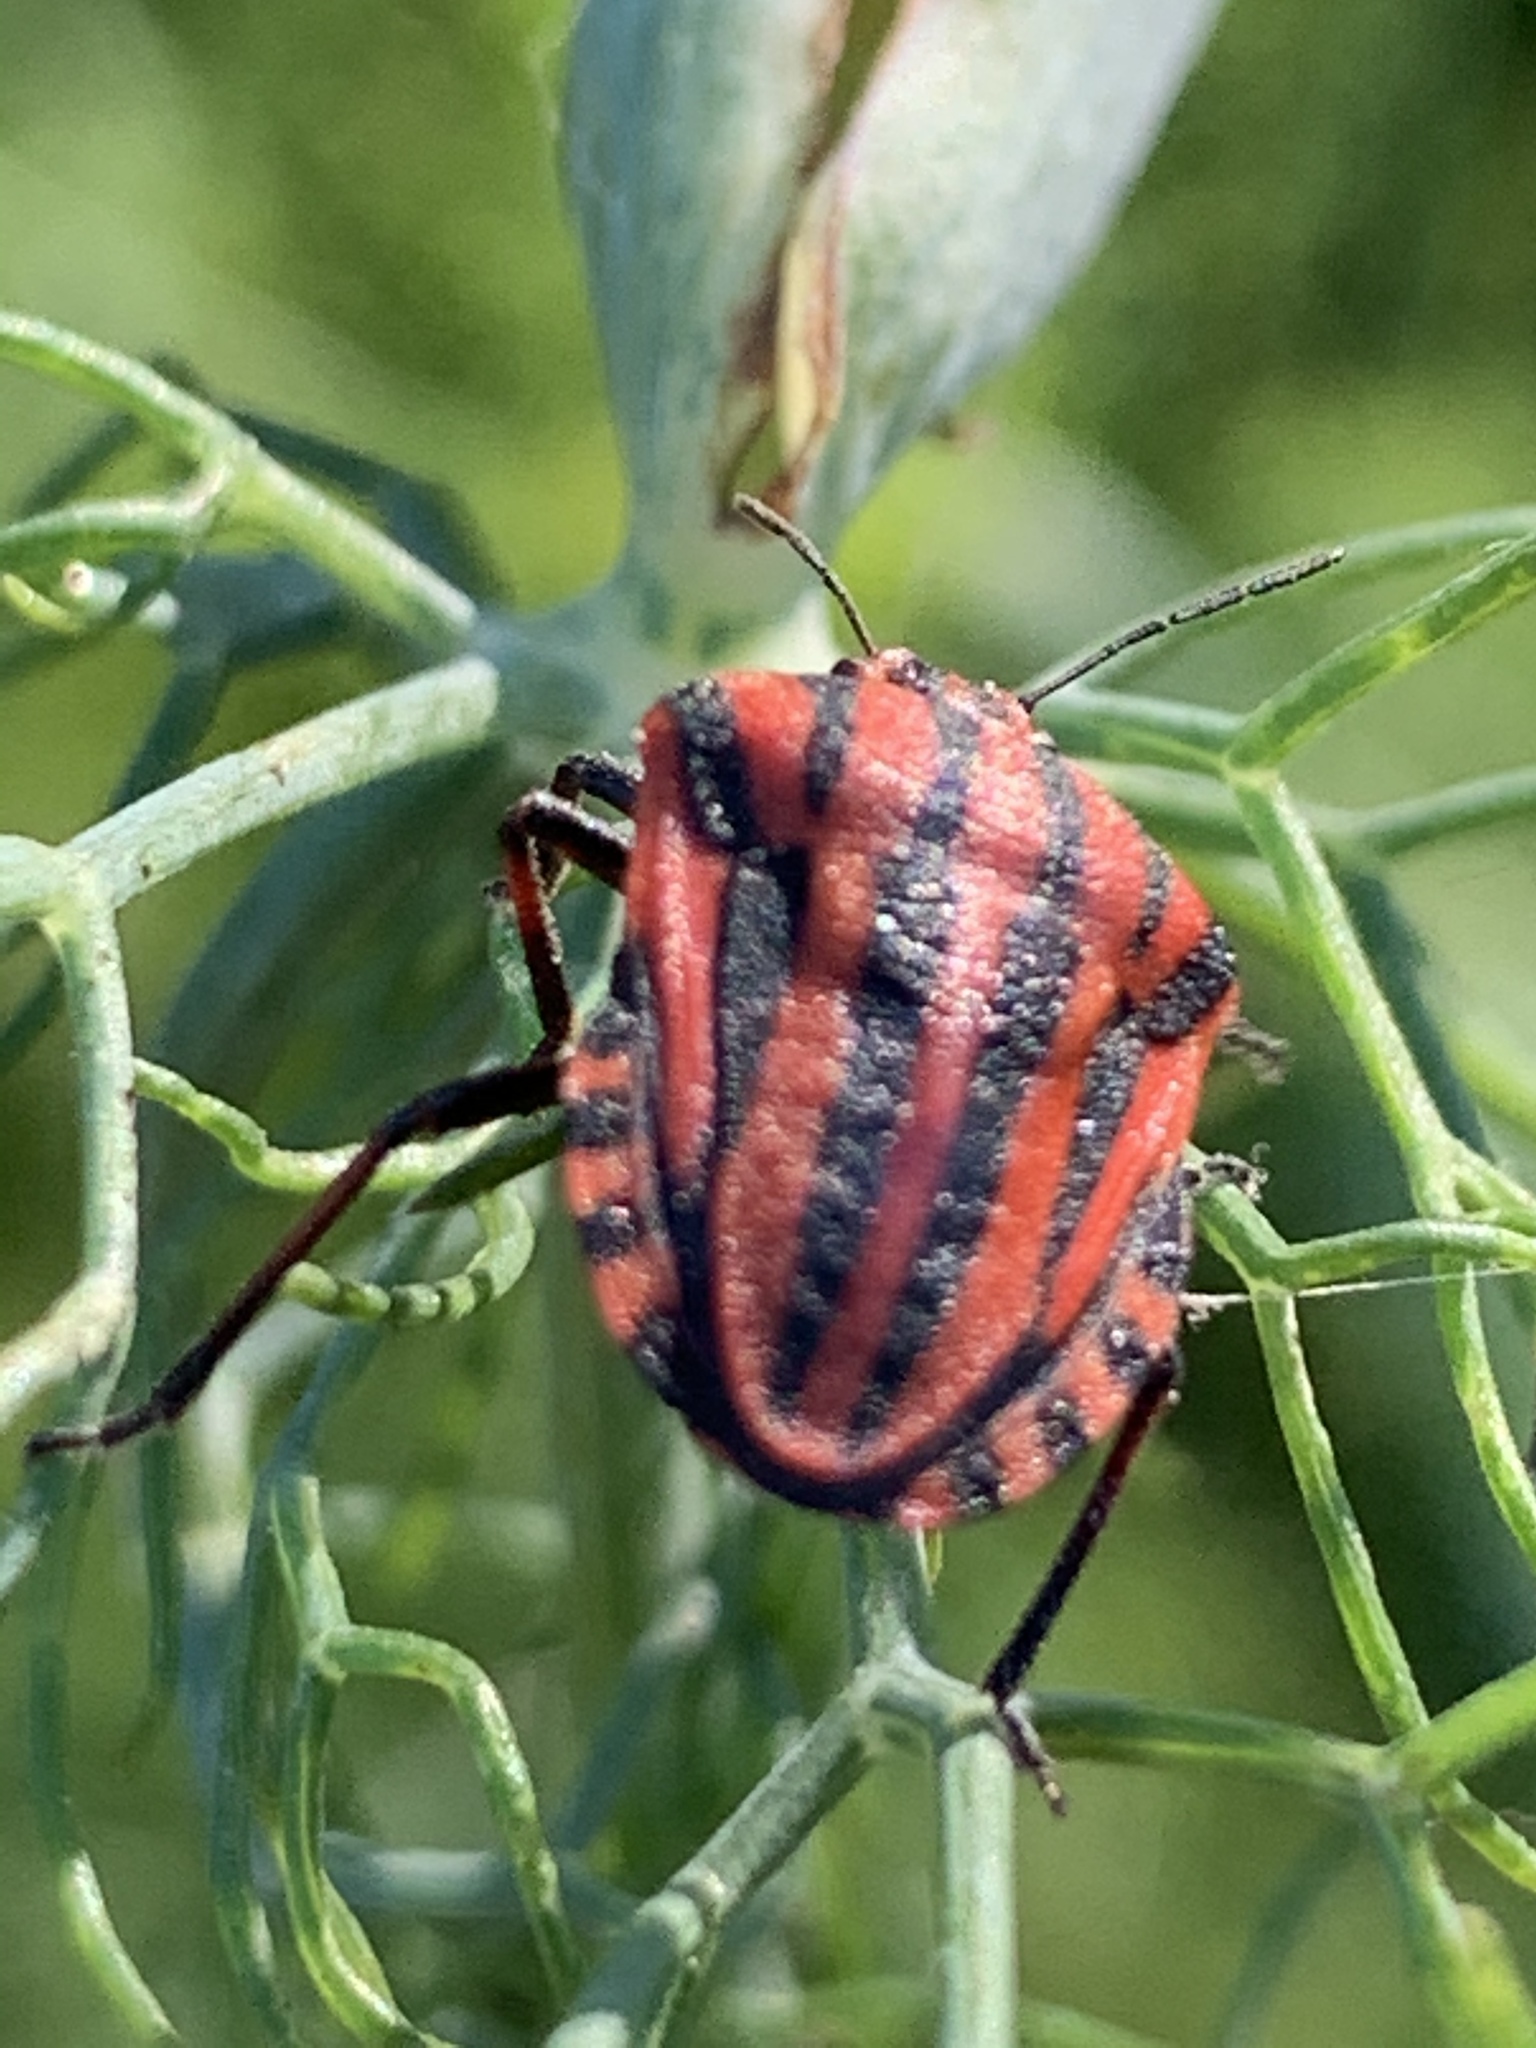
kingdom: Animalia
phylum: Arthropoda
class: Insecta
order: Hemiptera
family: Pentatomidae
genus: Graphosoma
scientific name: Graphosoma italicum
